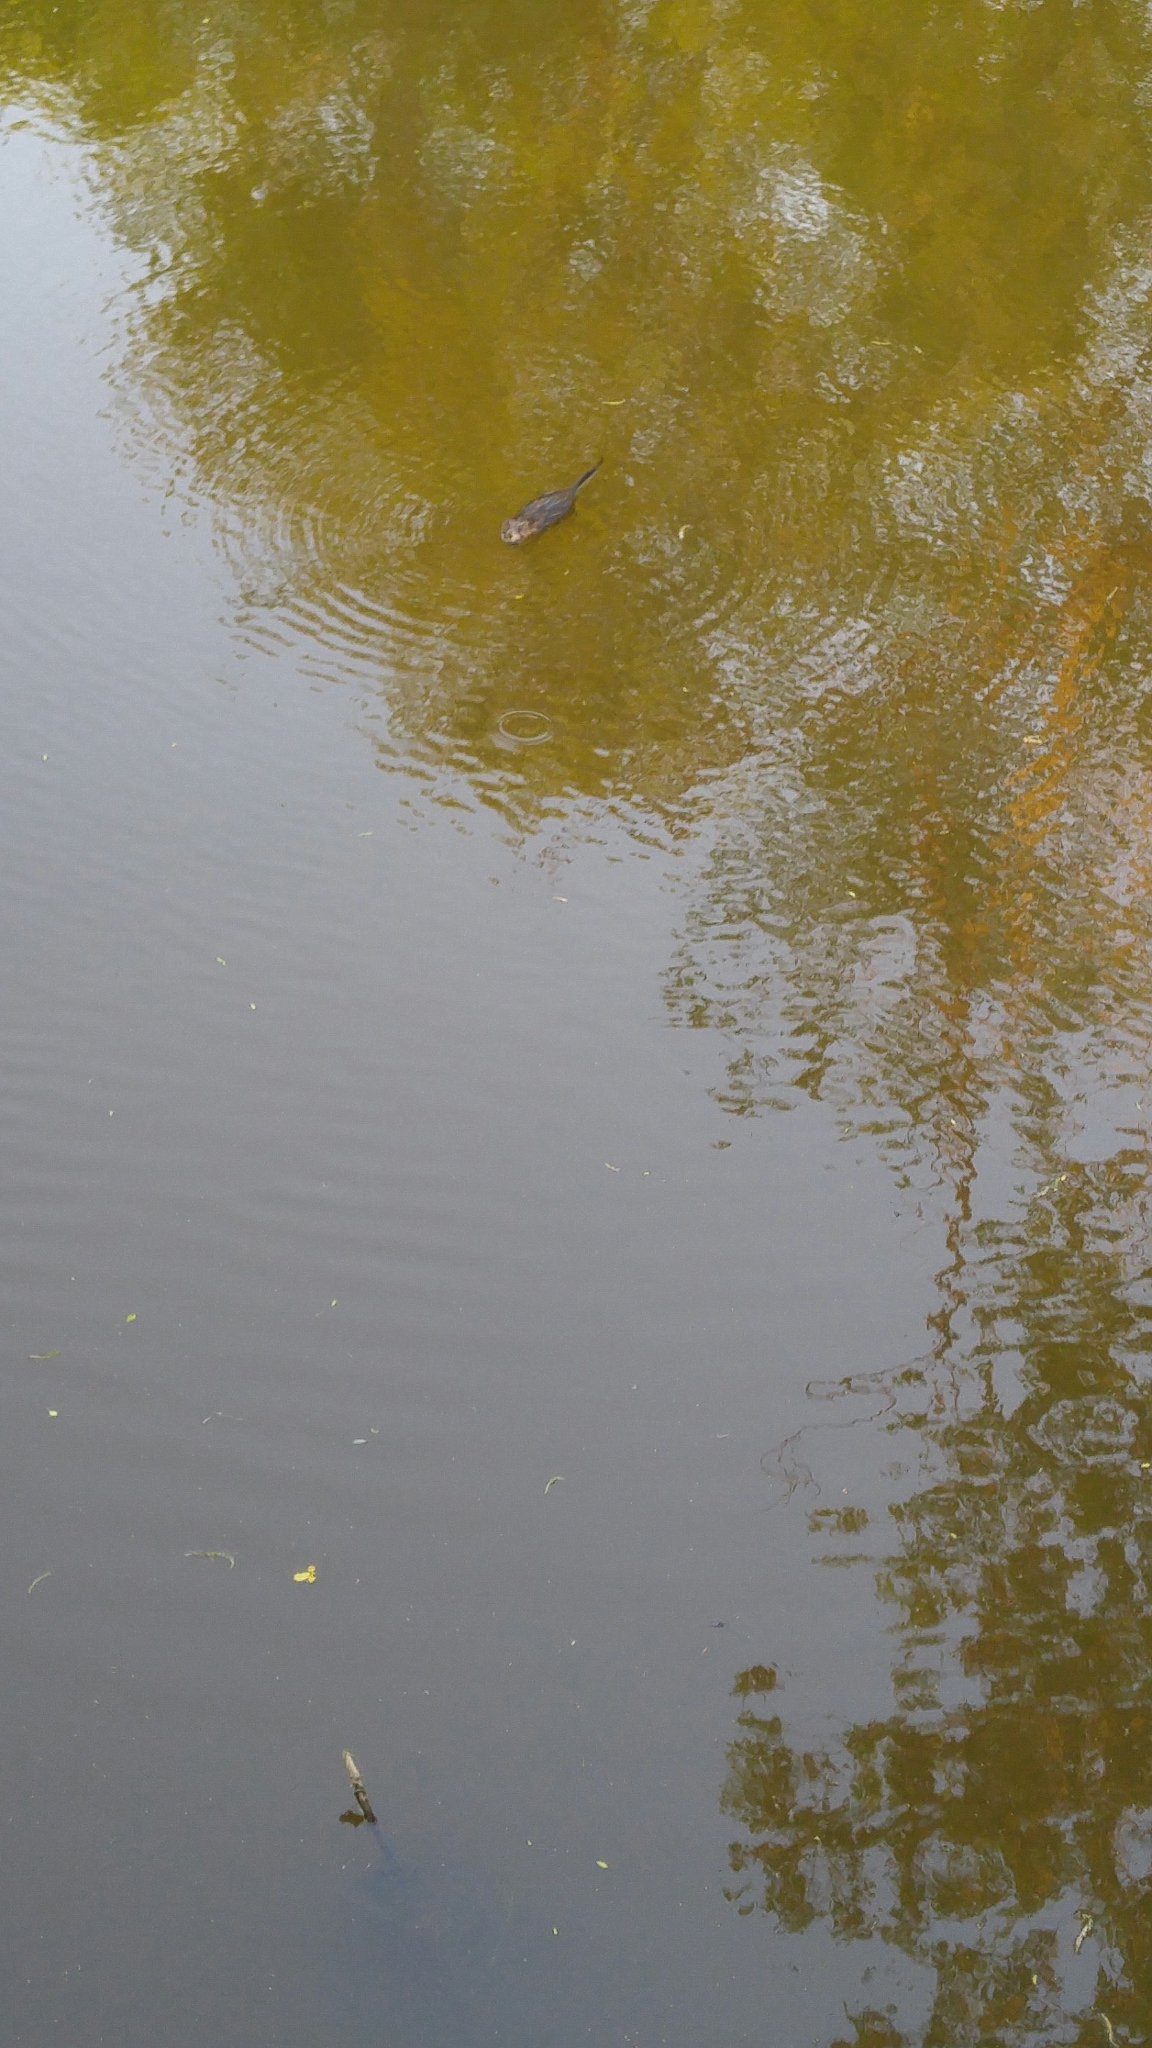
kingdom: Animalia
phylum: Chordata
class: Mammalia
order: Rodentia
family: Cricetidae
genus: Ondatra
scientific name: Ondatra zibethicus
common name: Muskrat
